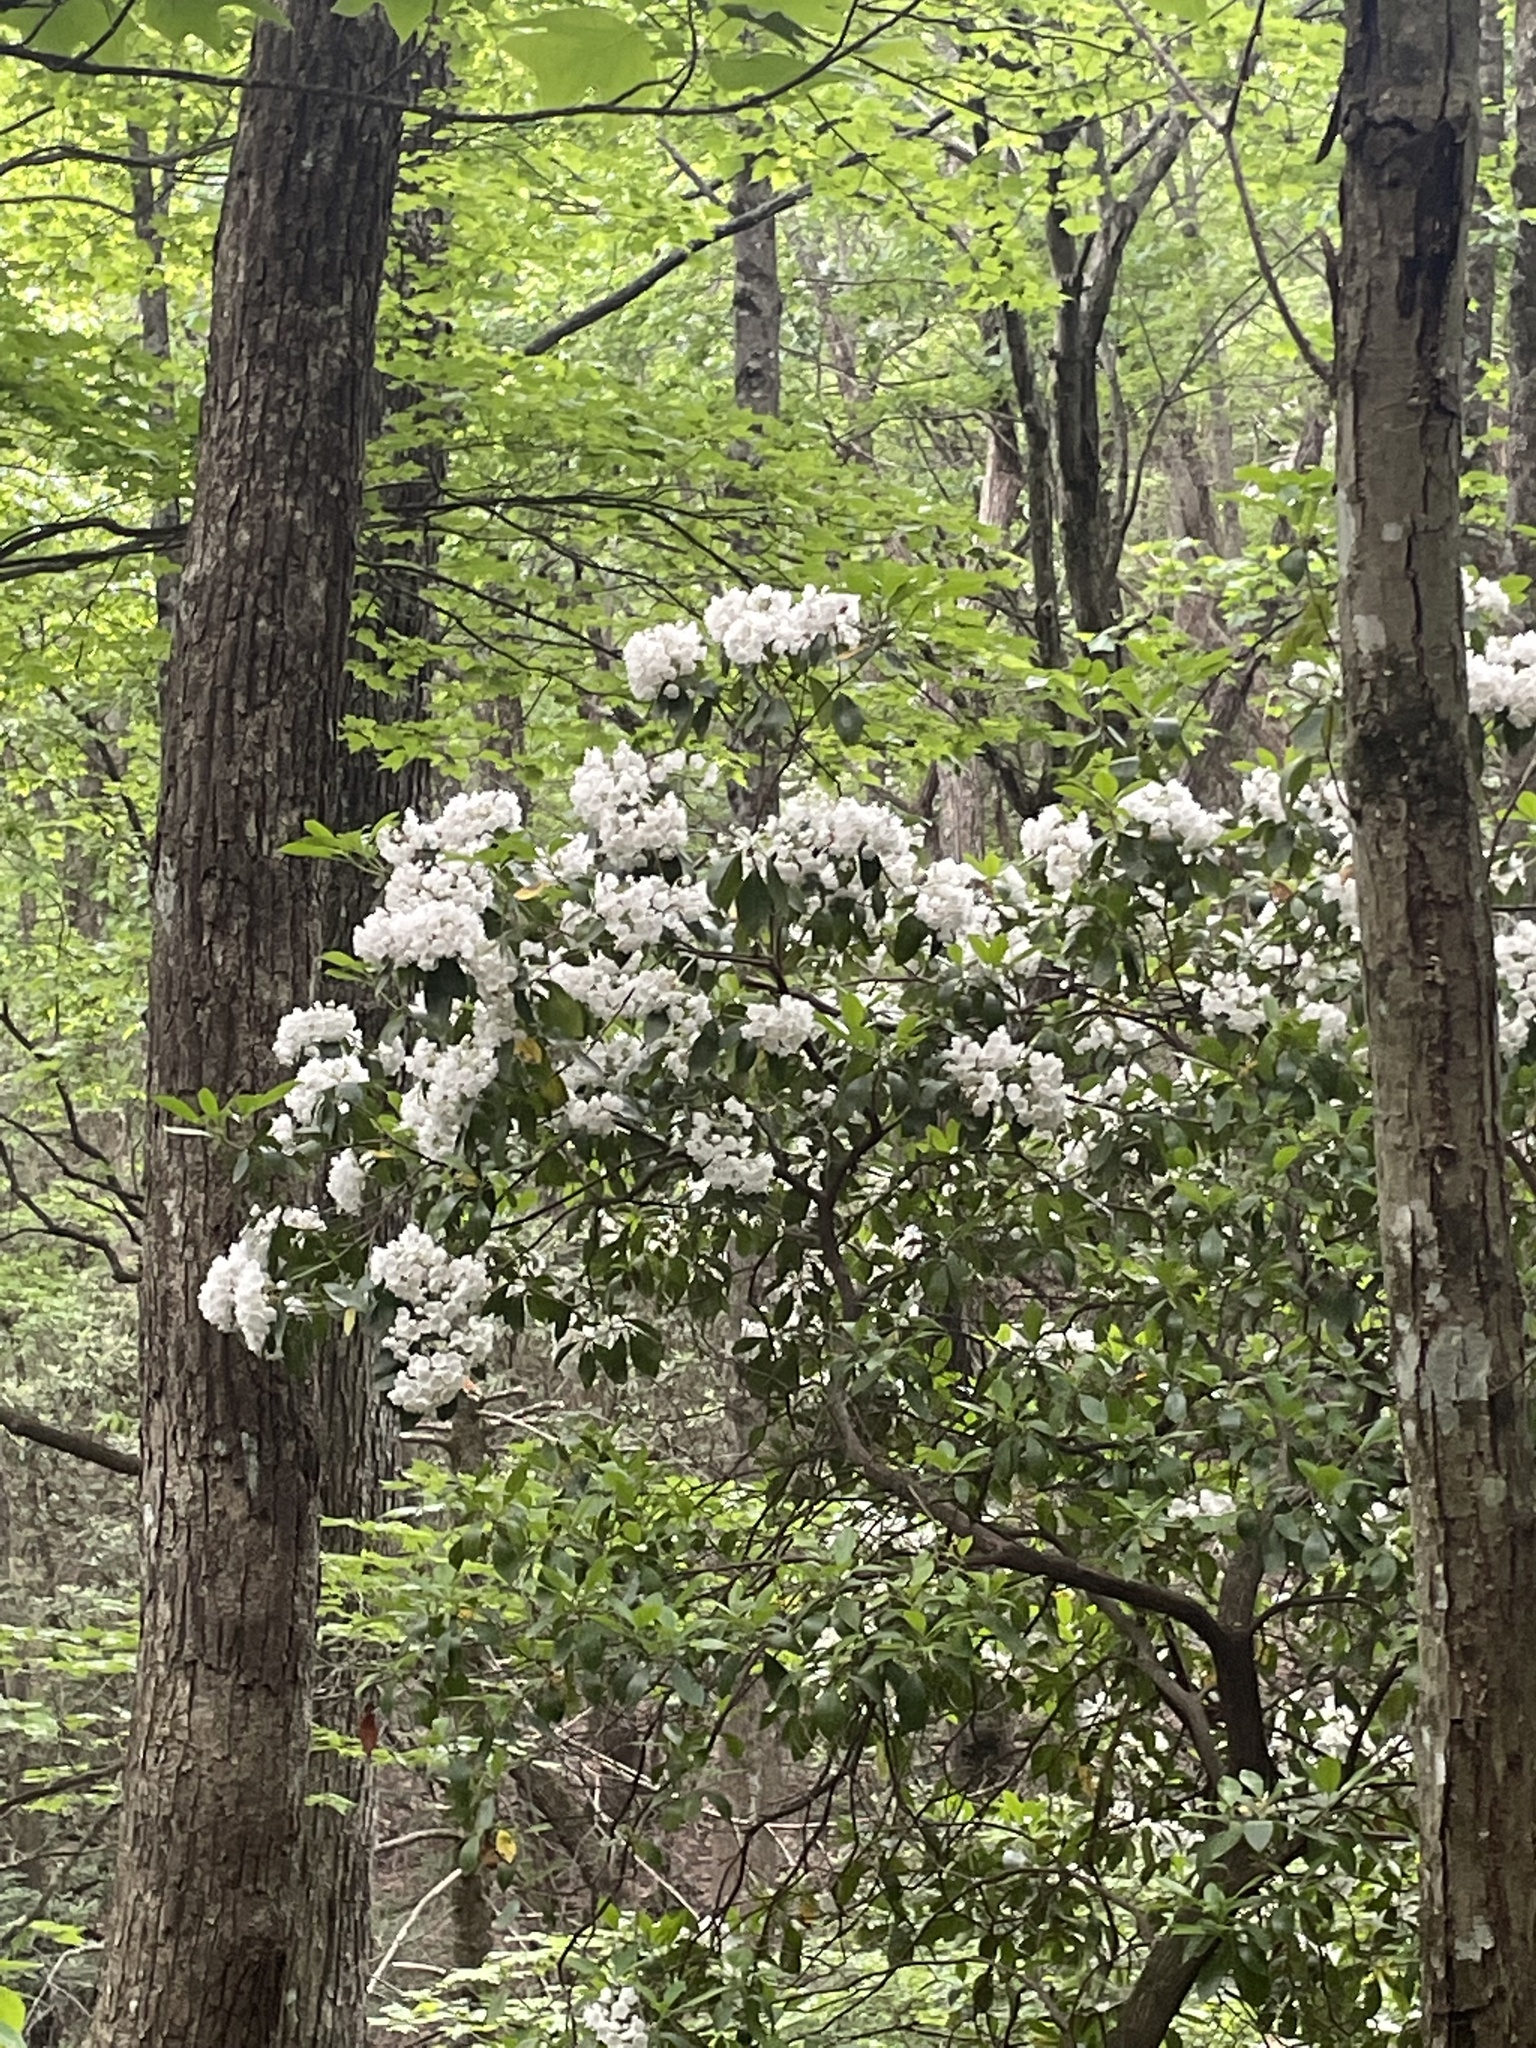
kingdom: Plantae
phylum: Tracheophyta
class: Magnoliopsida
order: Ericales
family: Ericaceae
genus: Kalmia
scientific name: Kalmia latifolia
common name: Mountain-laurel
